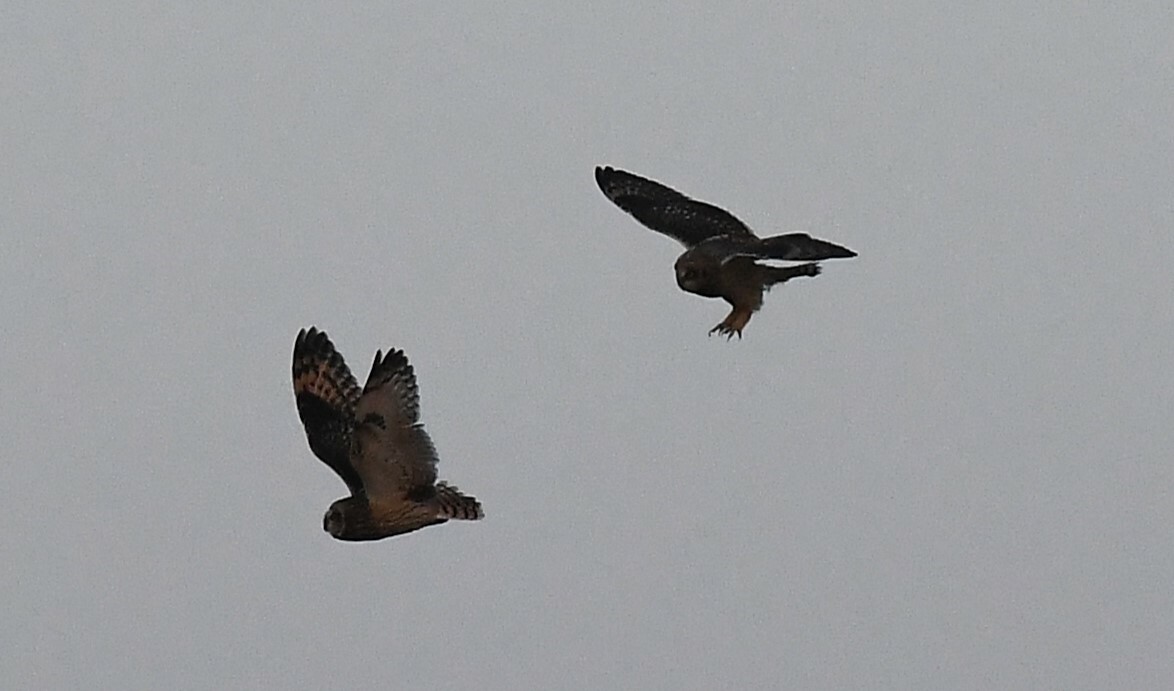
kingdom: Animalia
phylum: Chordata
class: Aves
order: Strigiformes
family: Strigidae
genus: Asio
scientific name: Asio flammeus
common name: Short-eared owl
